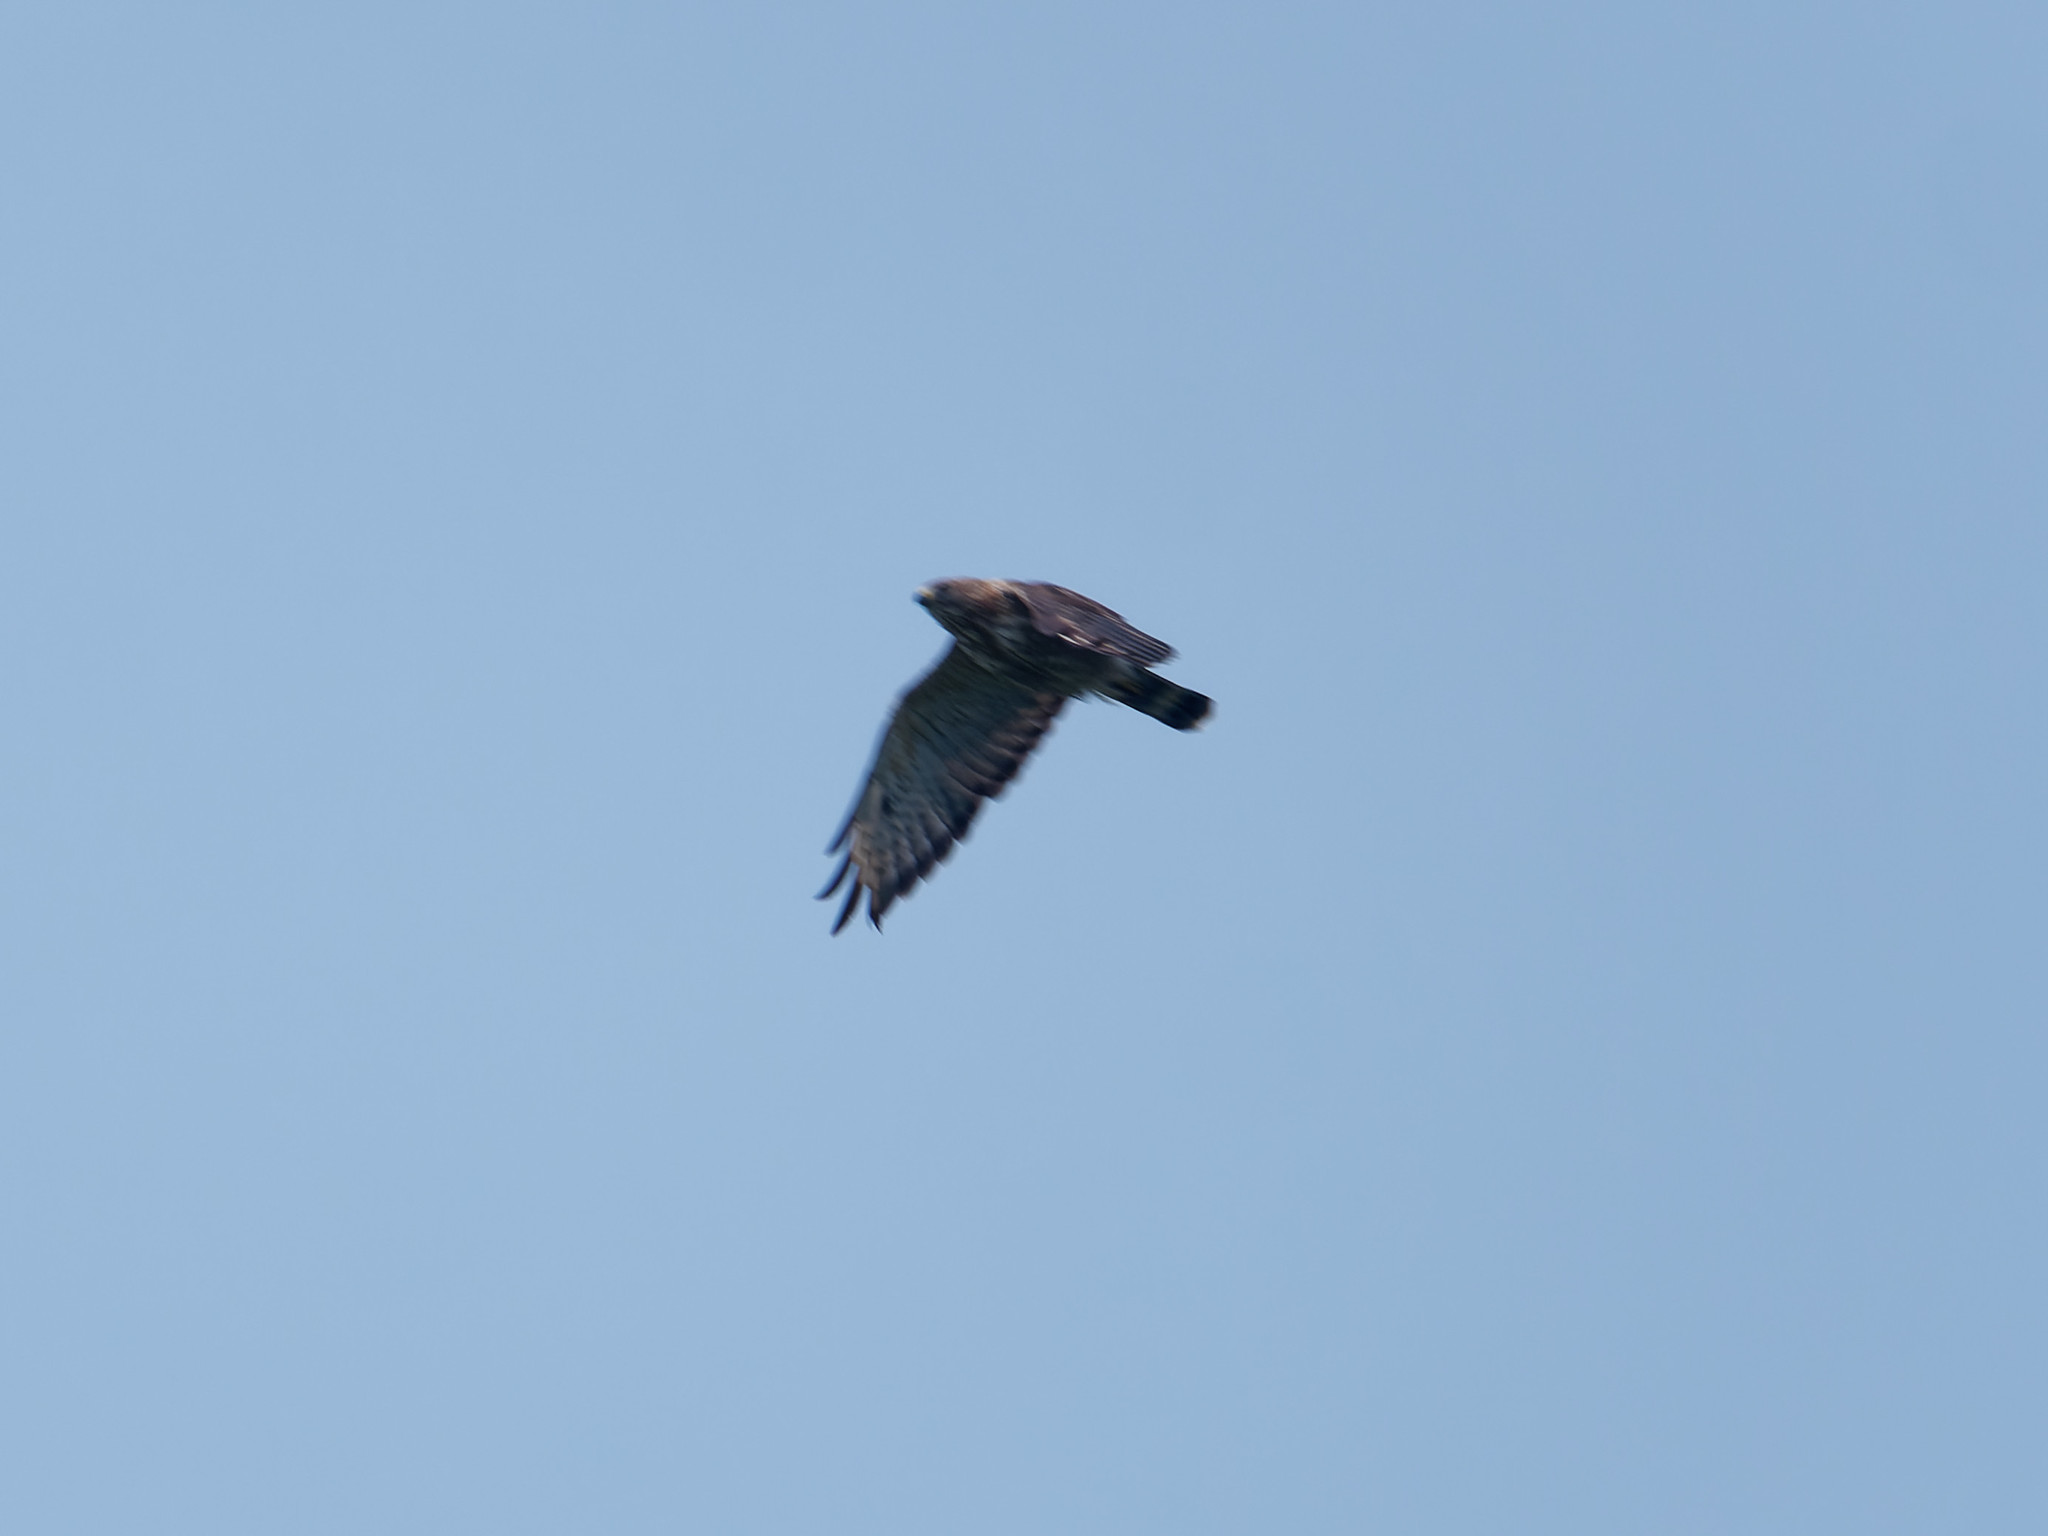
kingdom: Animalia
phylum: Chordata
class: Aves
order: Accipitriformes
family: Accipitridae
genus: Buteo
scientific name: Buteo platypterus
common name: Broad-winged hawk
